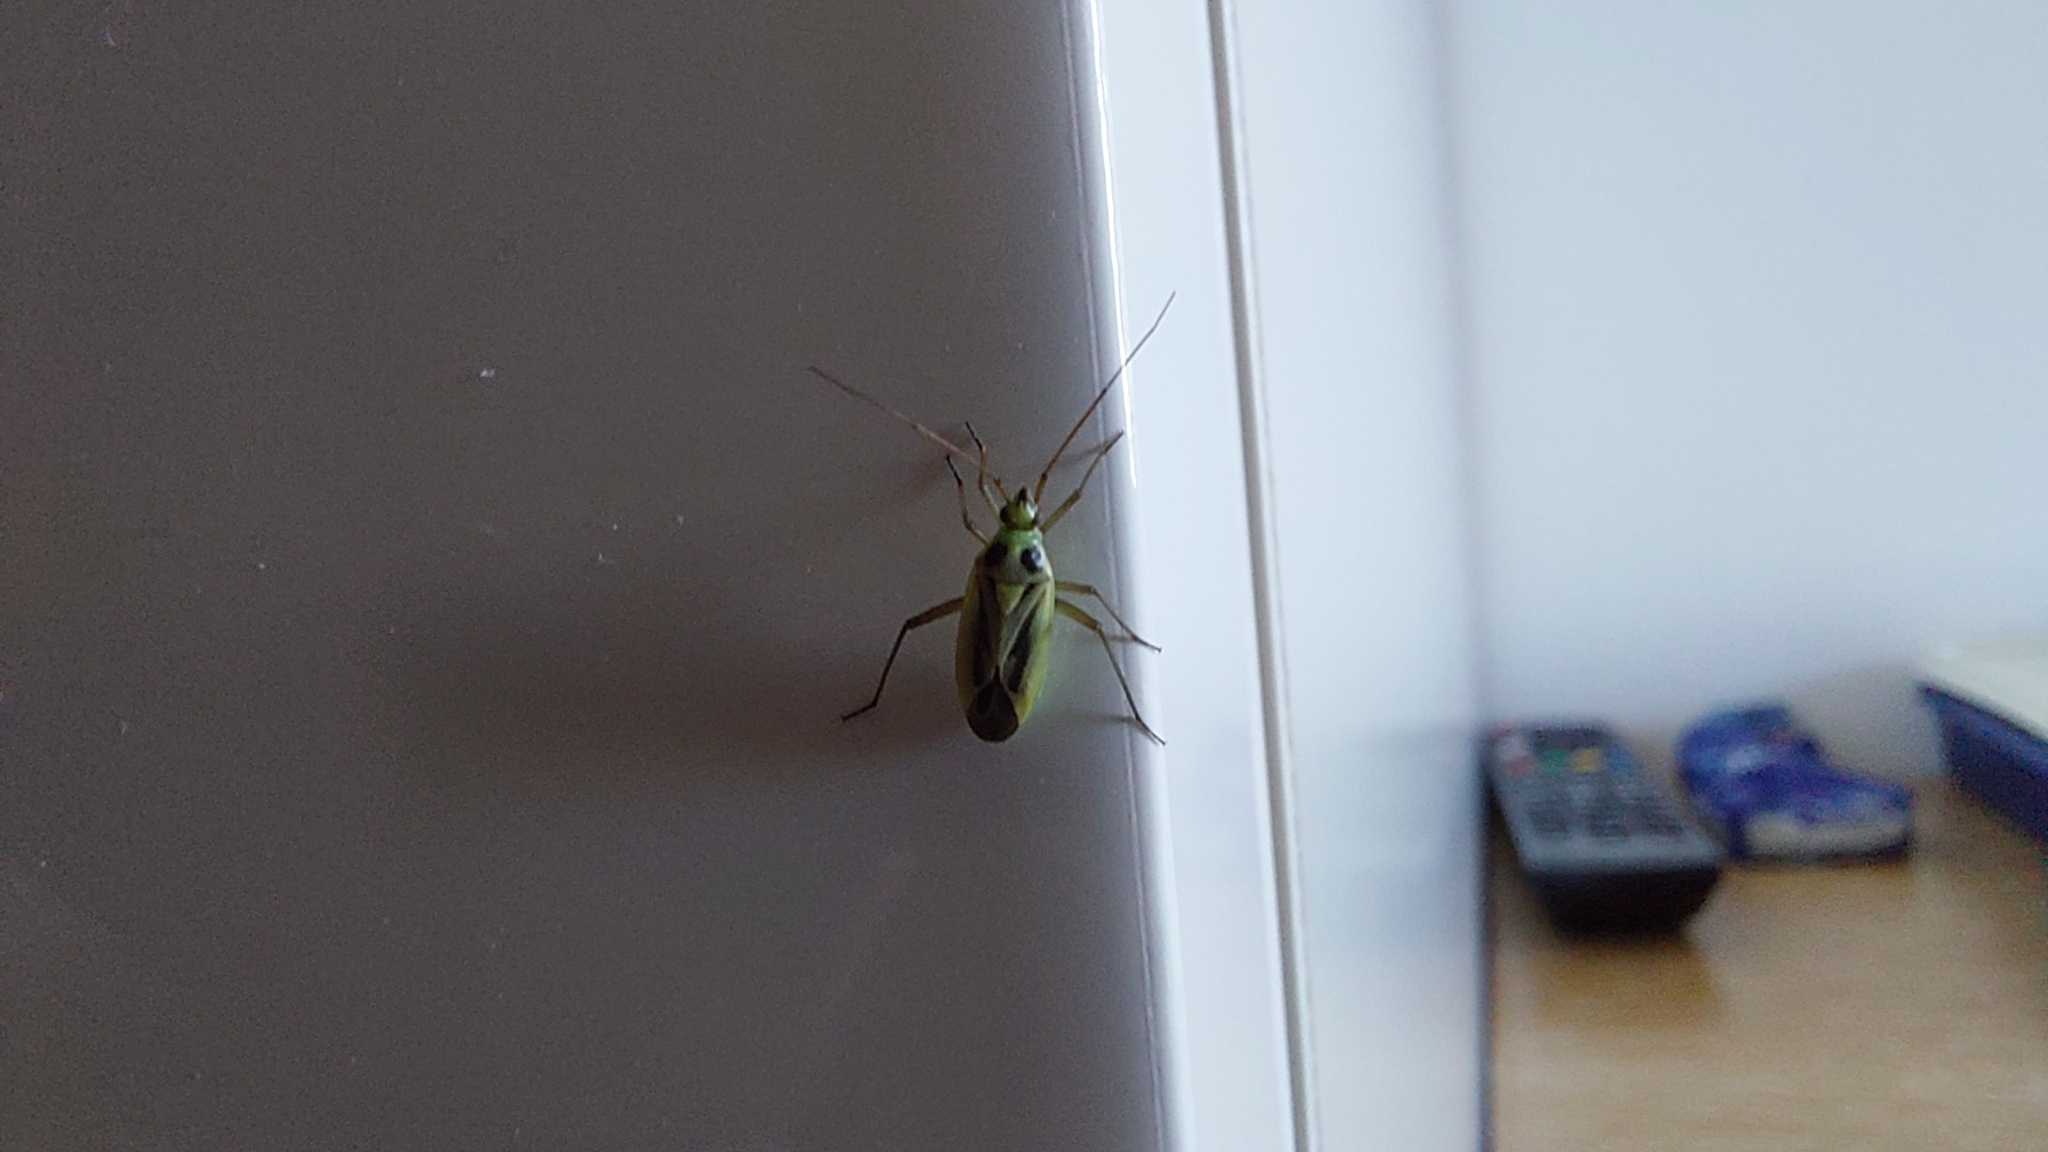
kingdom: Animalia
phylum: Arthropoda
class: Insecta
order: Hemiptera
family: Miridae
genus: Stenotus
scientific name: Stenotus binotatus
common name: Plant bug
